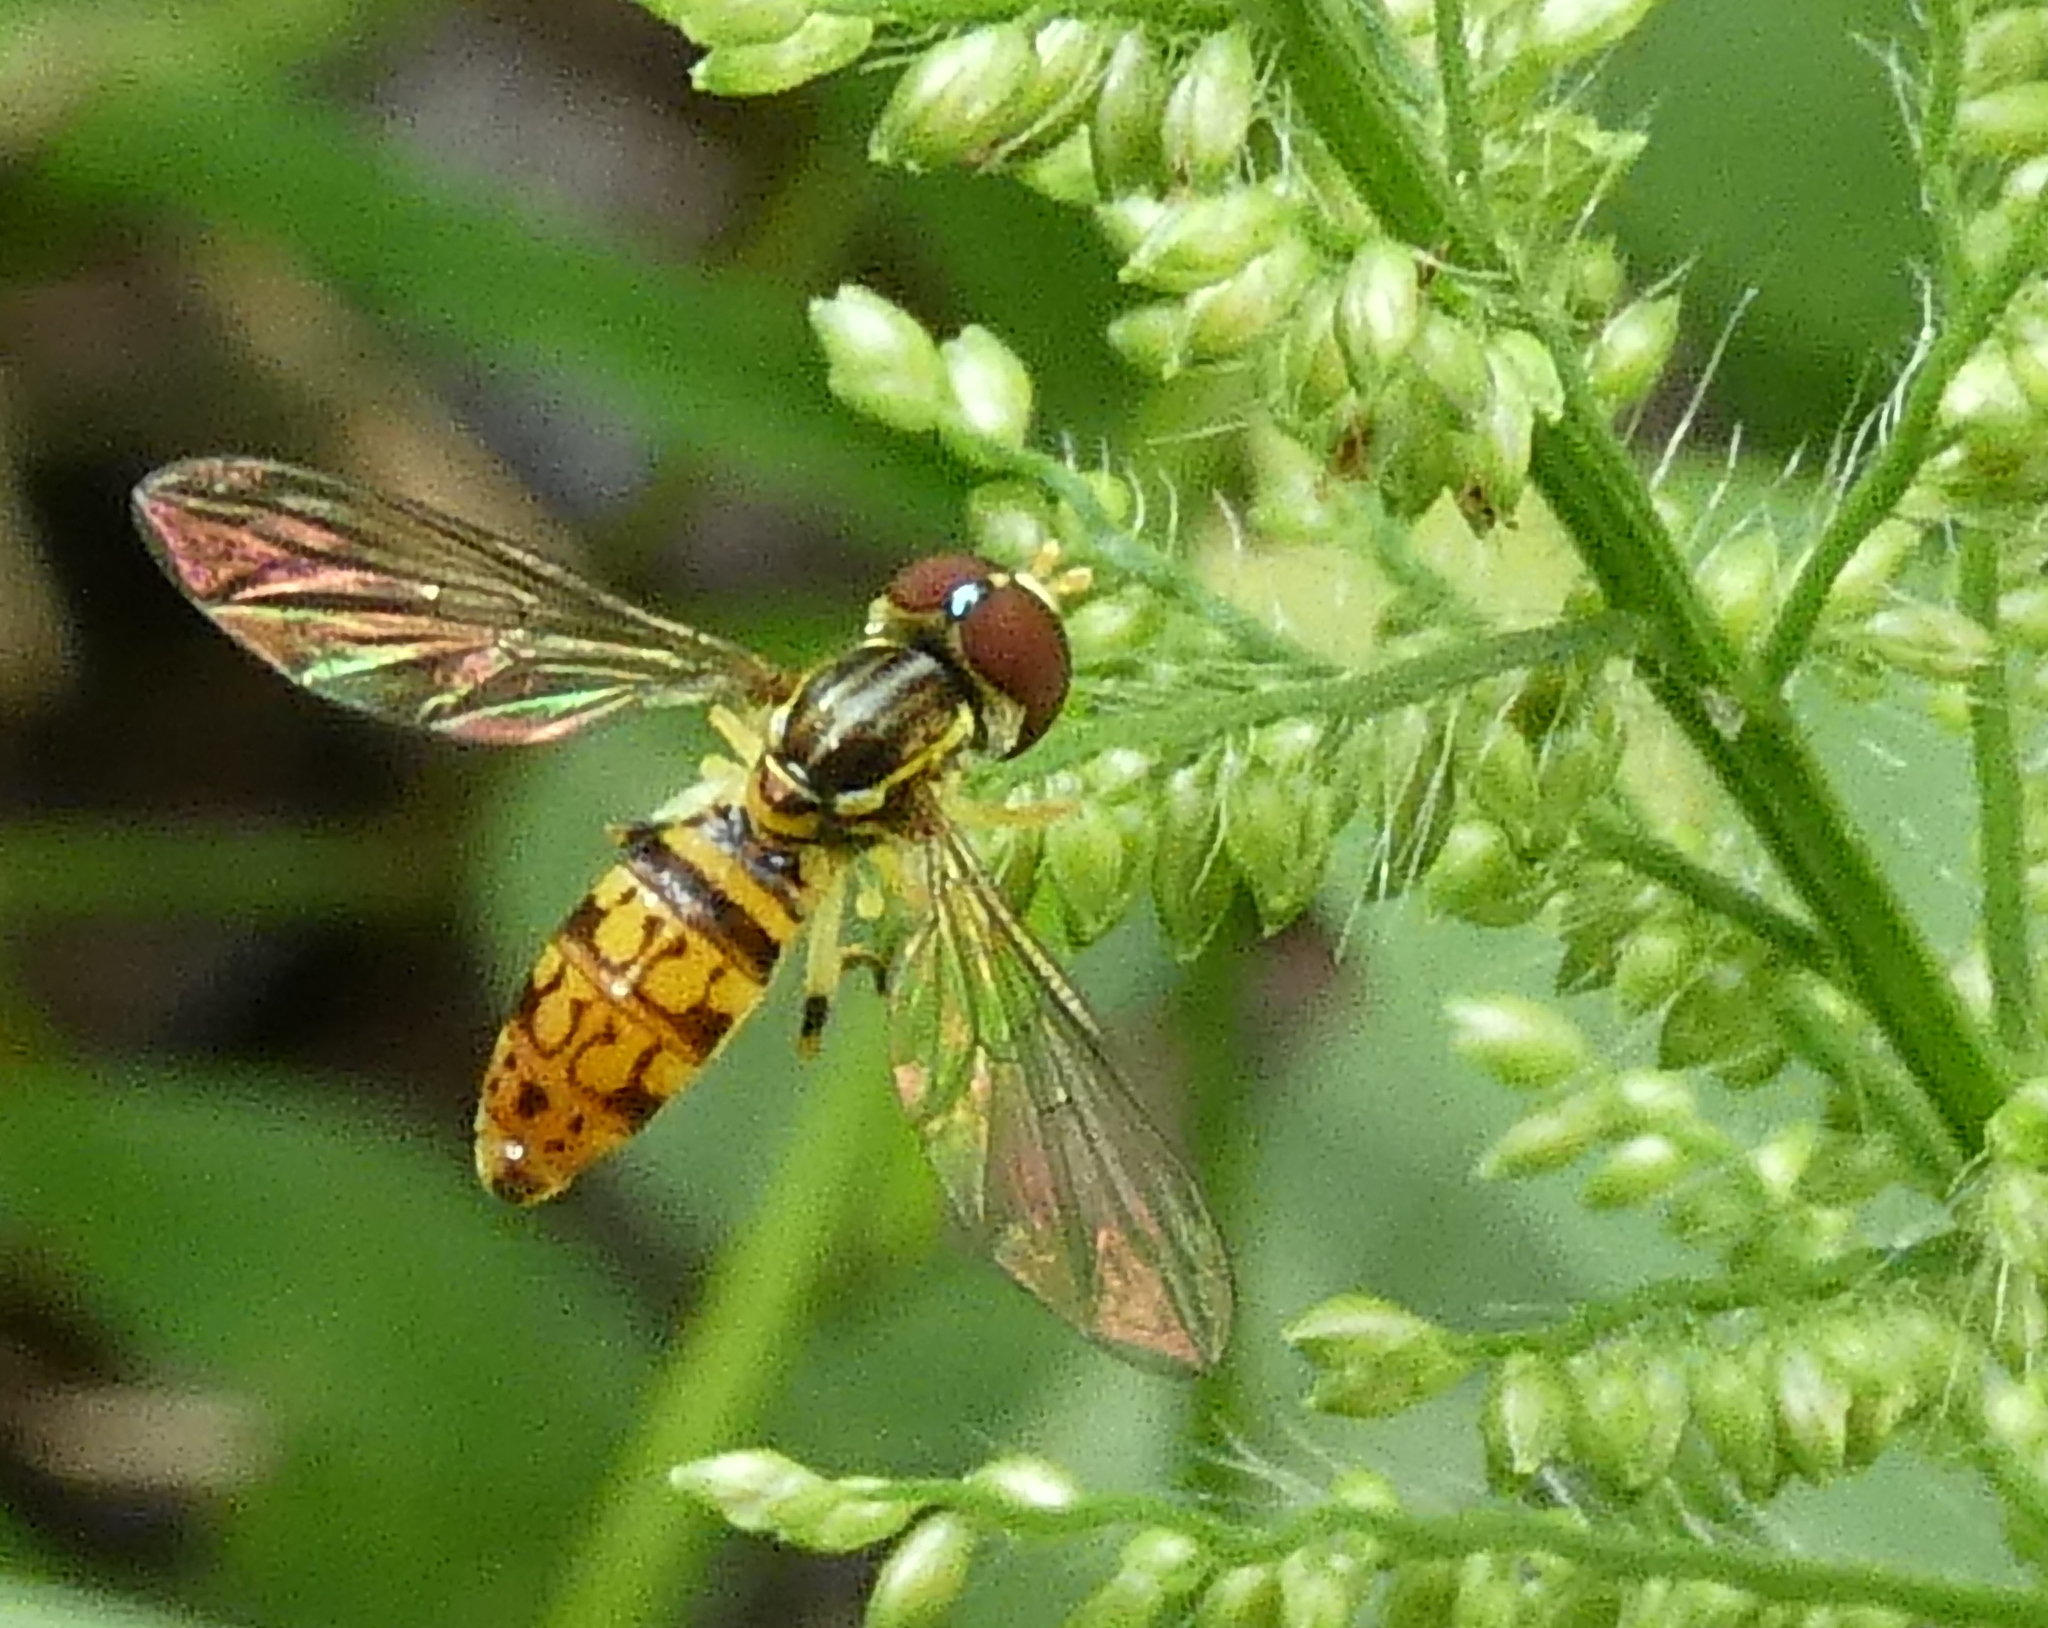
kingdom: Animalia
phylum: Arthropoda
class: Insecta
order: Diptera
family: Syrphidae
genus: Toxomerus
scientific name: Toxomerus pictus
